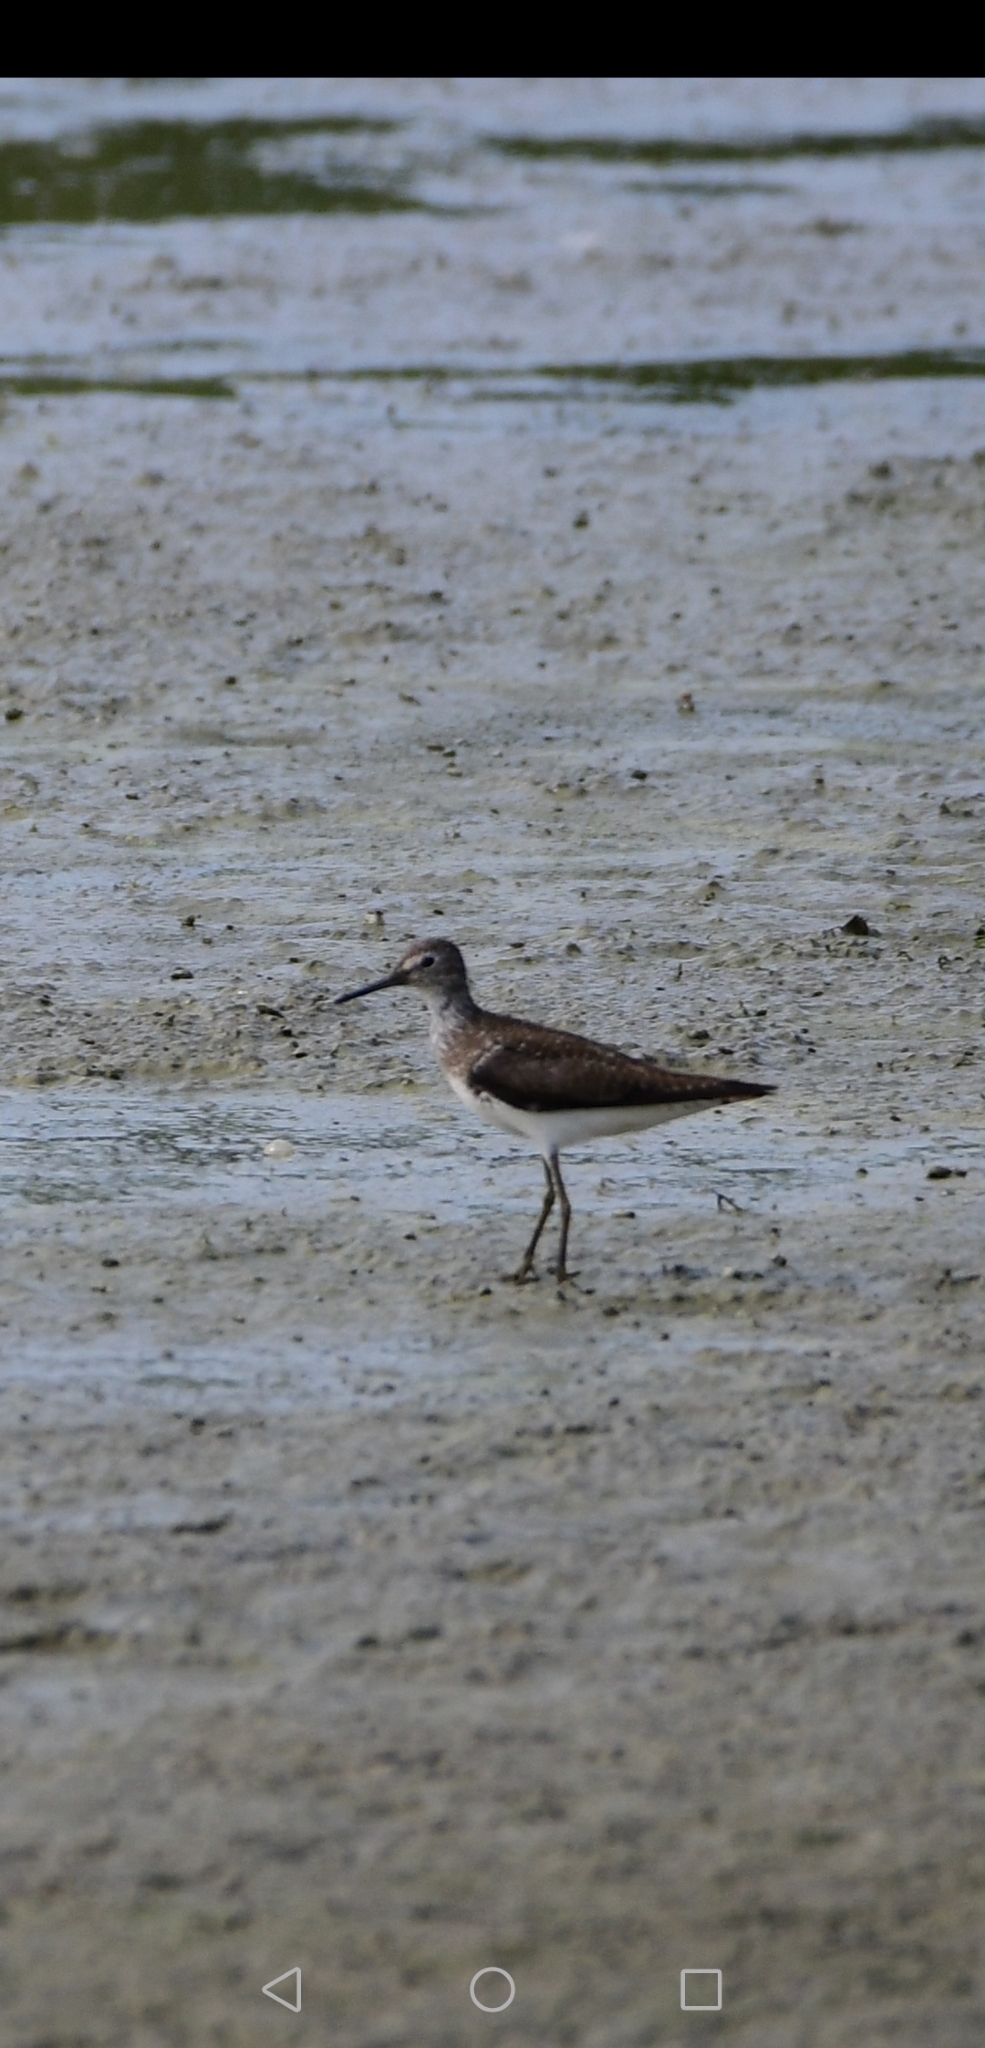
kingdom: Animalia
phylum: Chordata
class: Aves
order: Charadriiformes
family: Scolopacidae
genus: Tringa
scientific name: Tringa solitaria
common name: Solitary sandpiper
